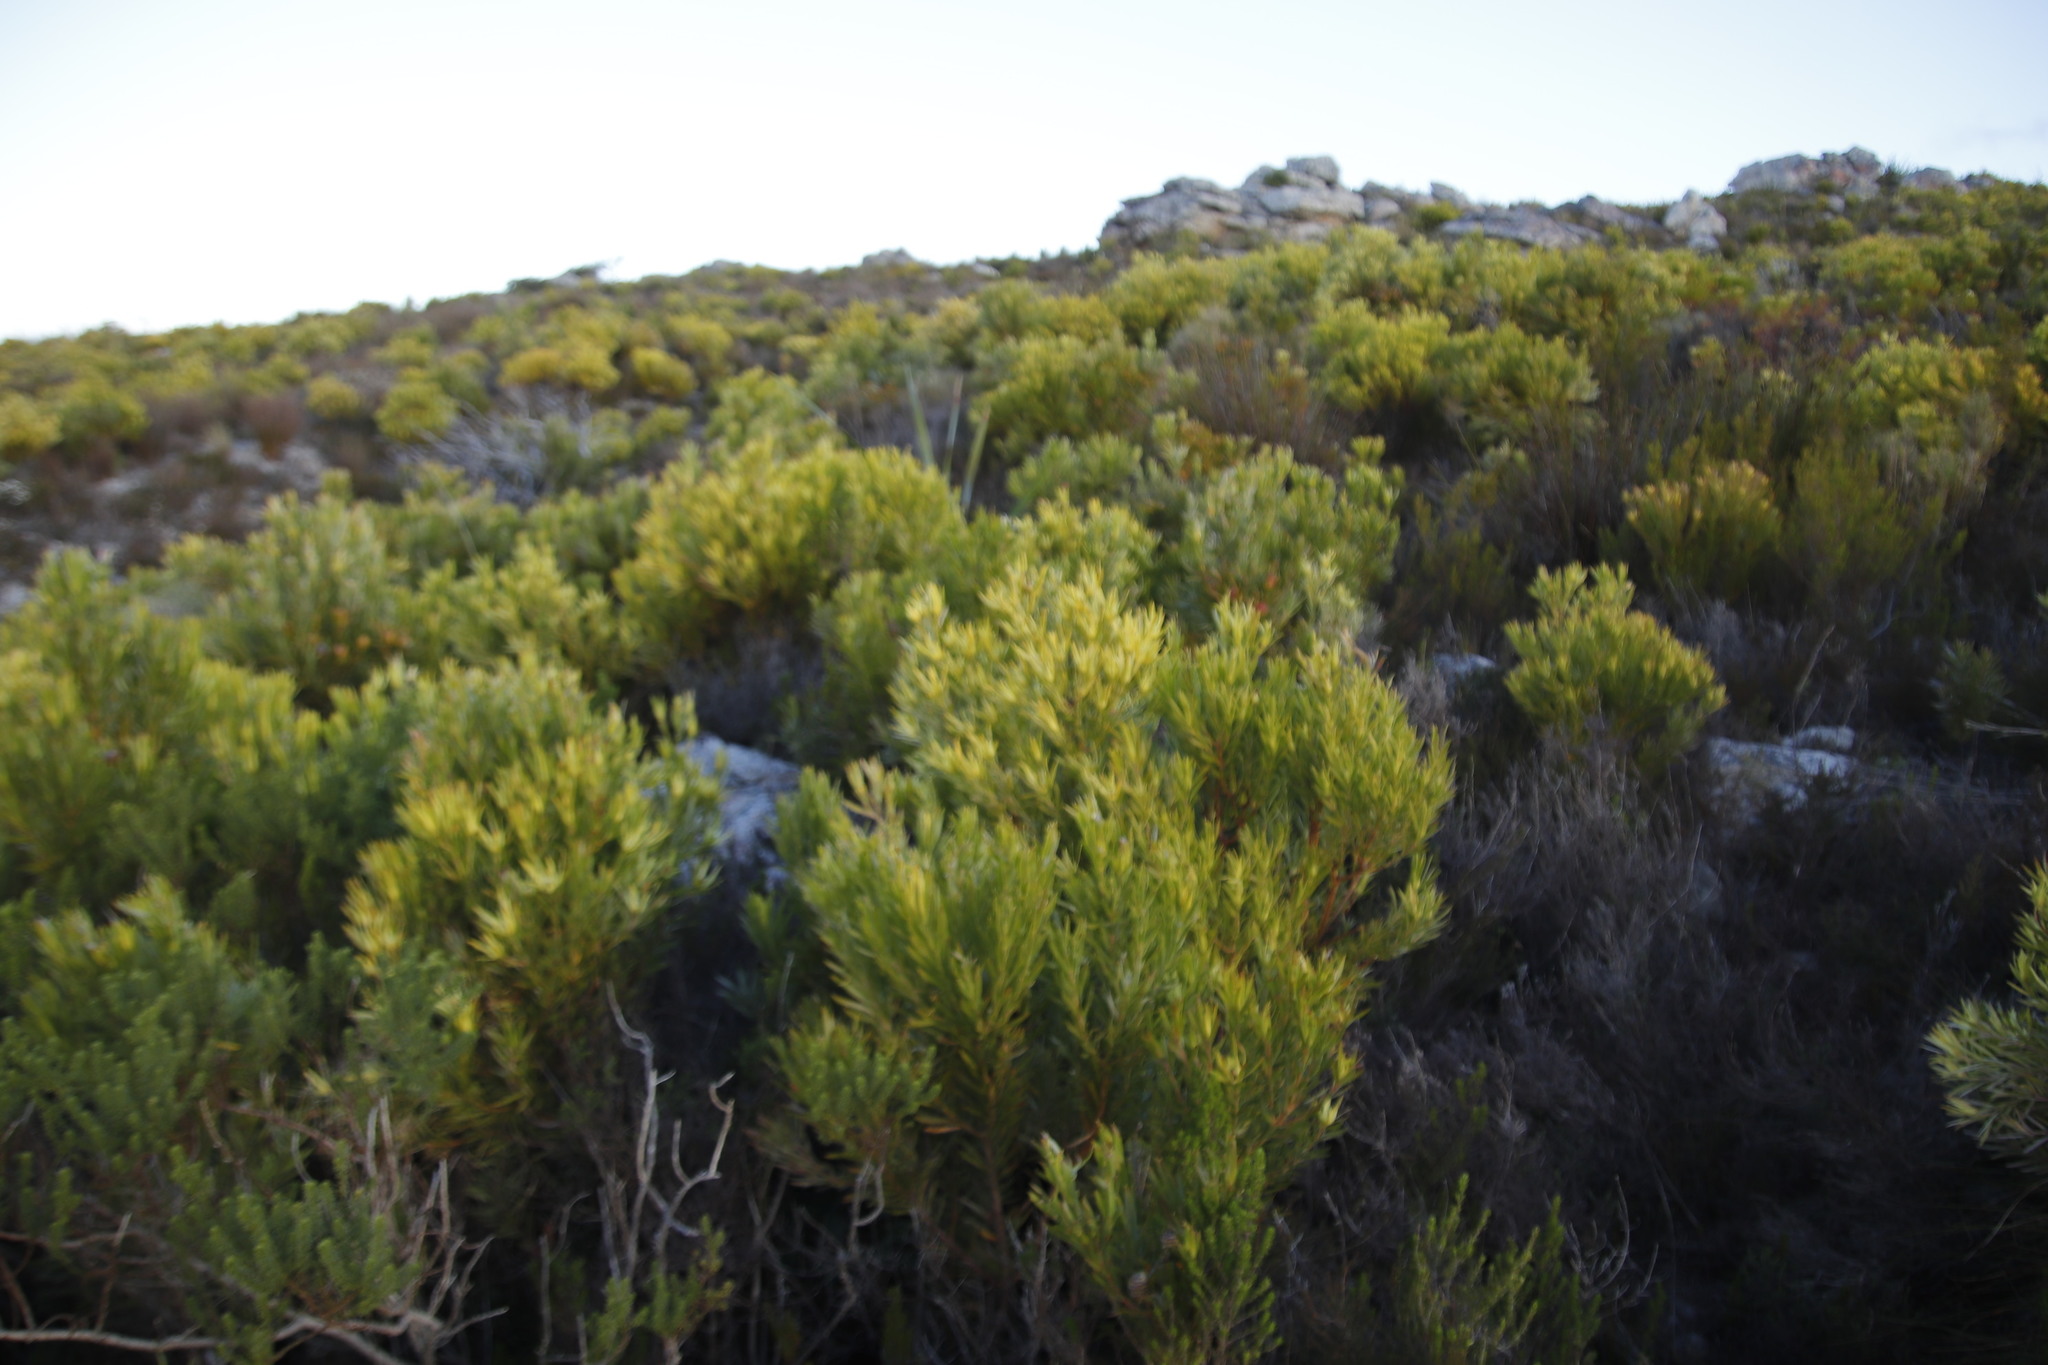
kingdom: Plantae
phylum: Tracheophyta
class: Magnoliopsida
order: Proteales
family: Proteaceae
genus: Leucadendron
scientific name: Leucadendron xanthoconus
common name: Sickle-leaf conebush
